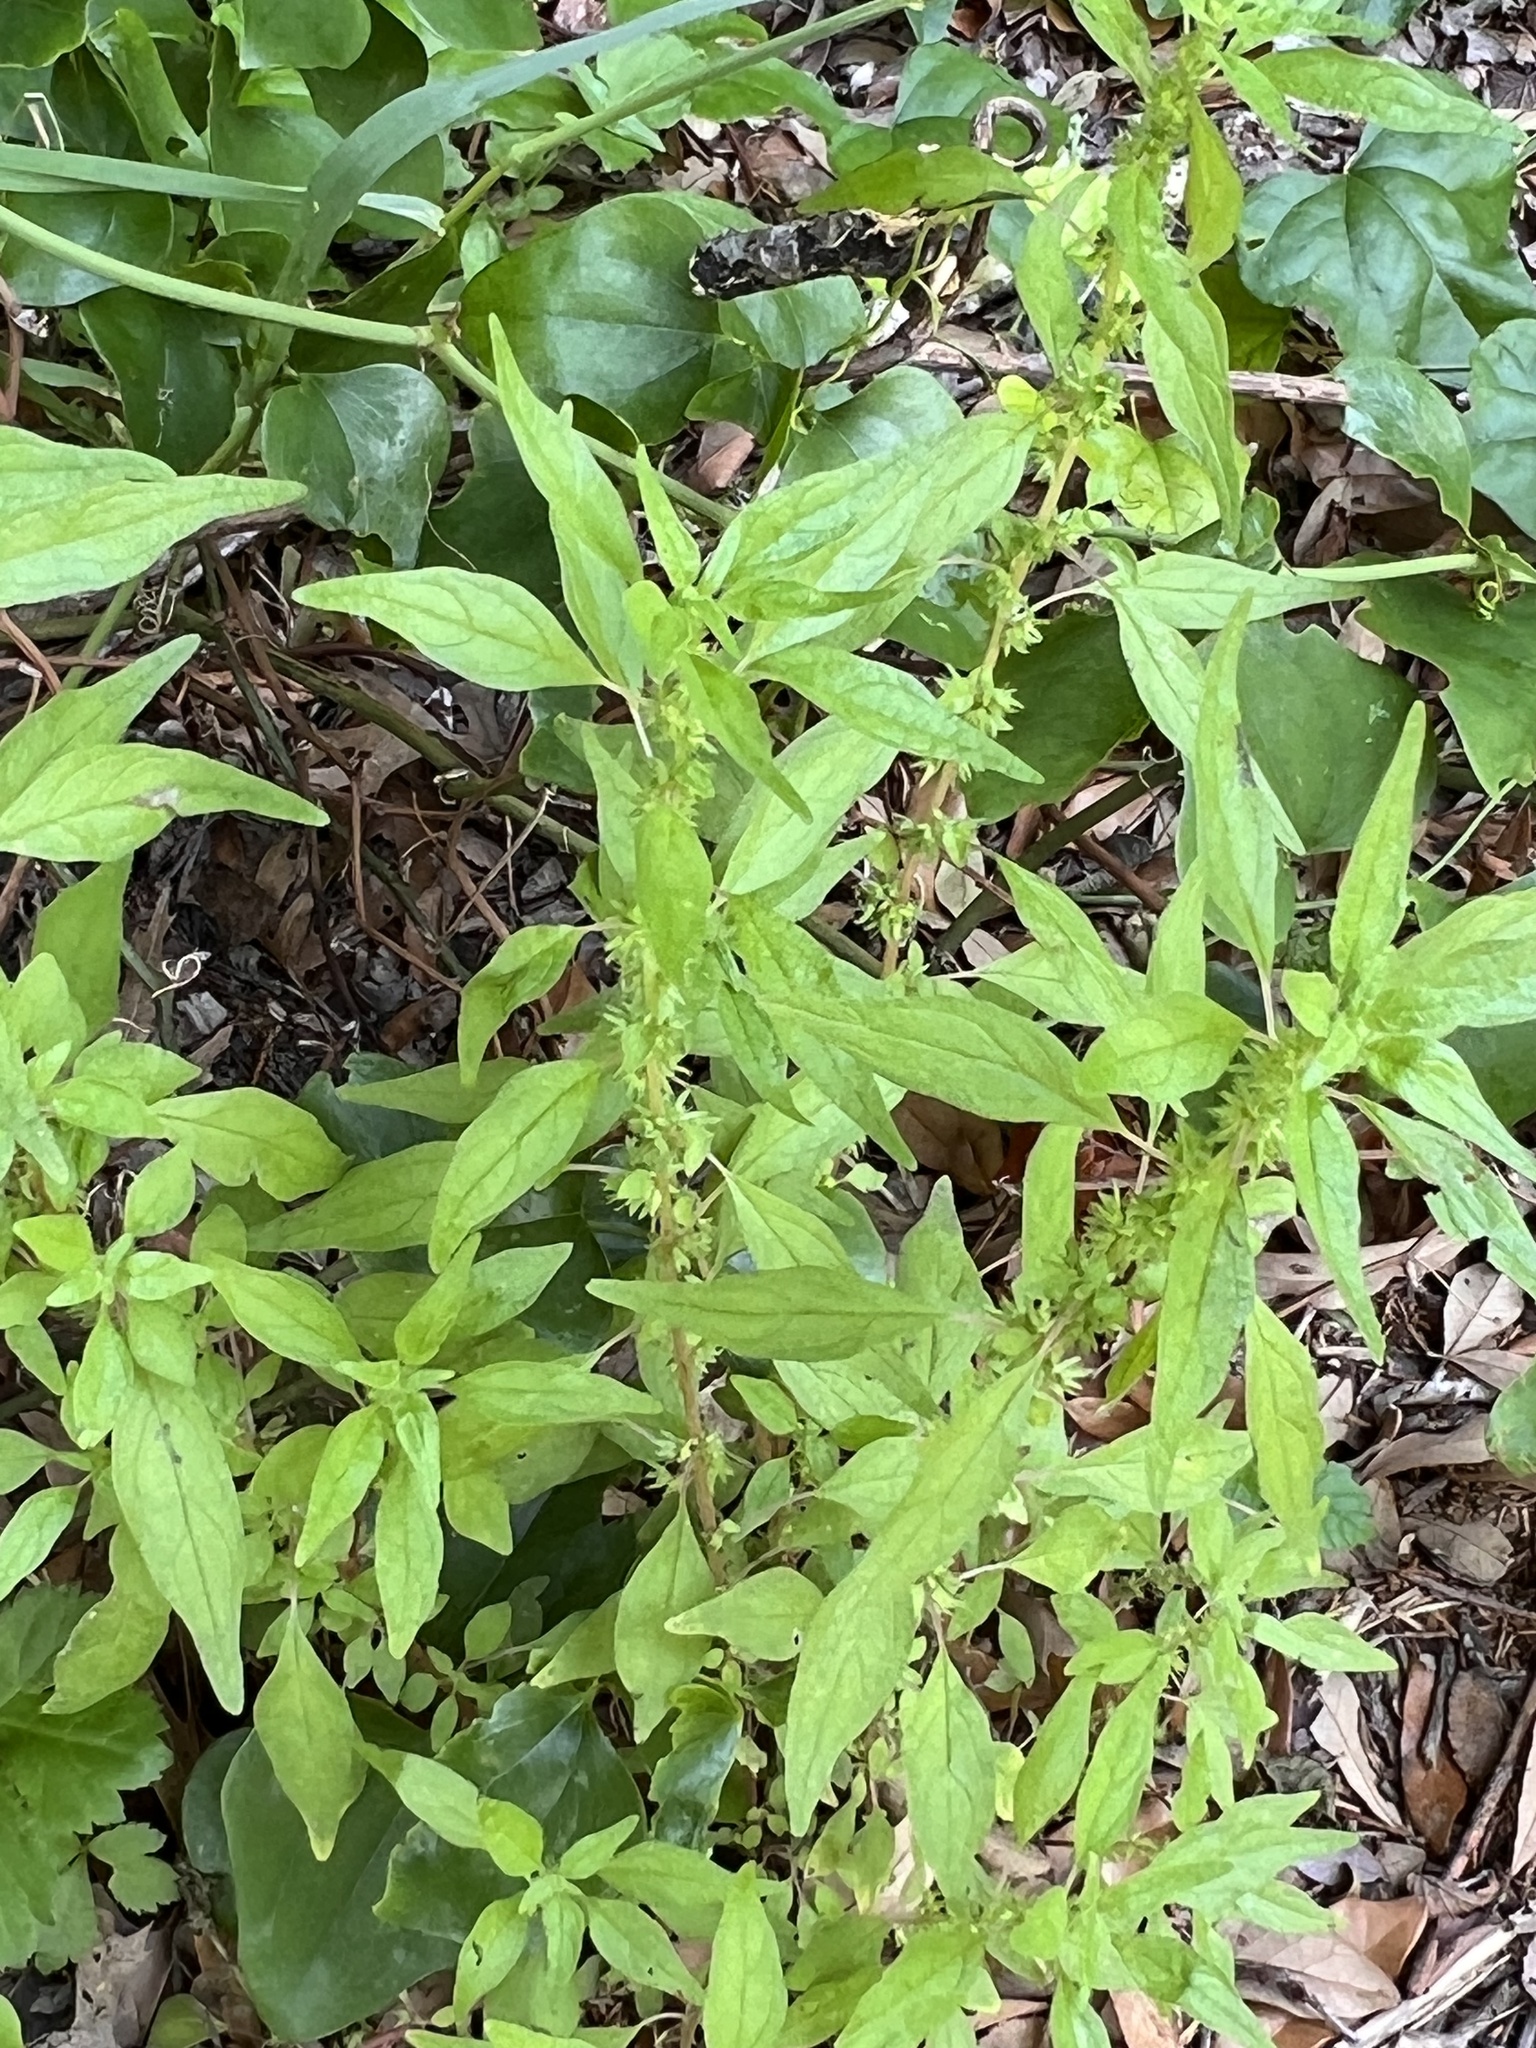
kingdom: Plantae
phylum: Tracheophyta
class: Magnoliopsida
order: Rosales
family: Urticaceae
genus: Parietaria
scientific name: Parietaria pensylvanica
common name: Pennsylvania pellitory
